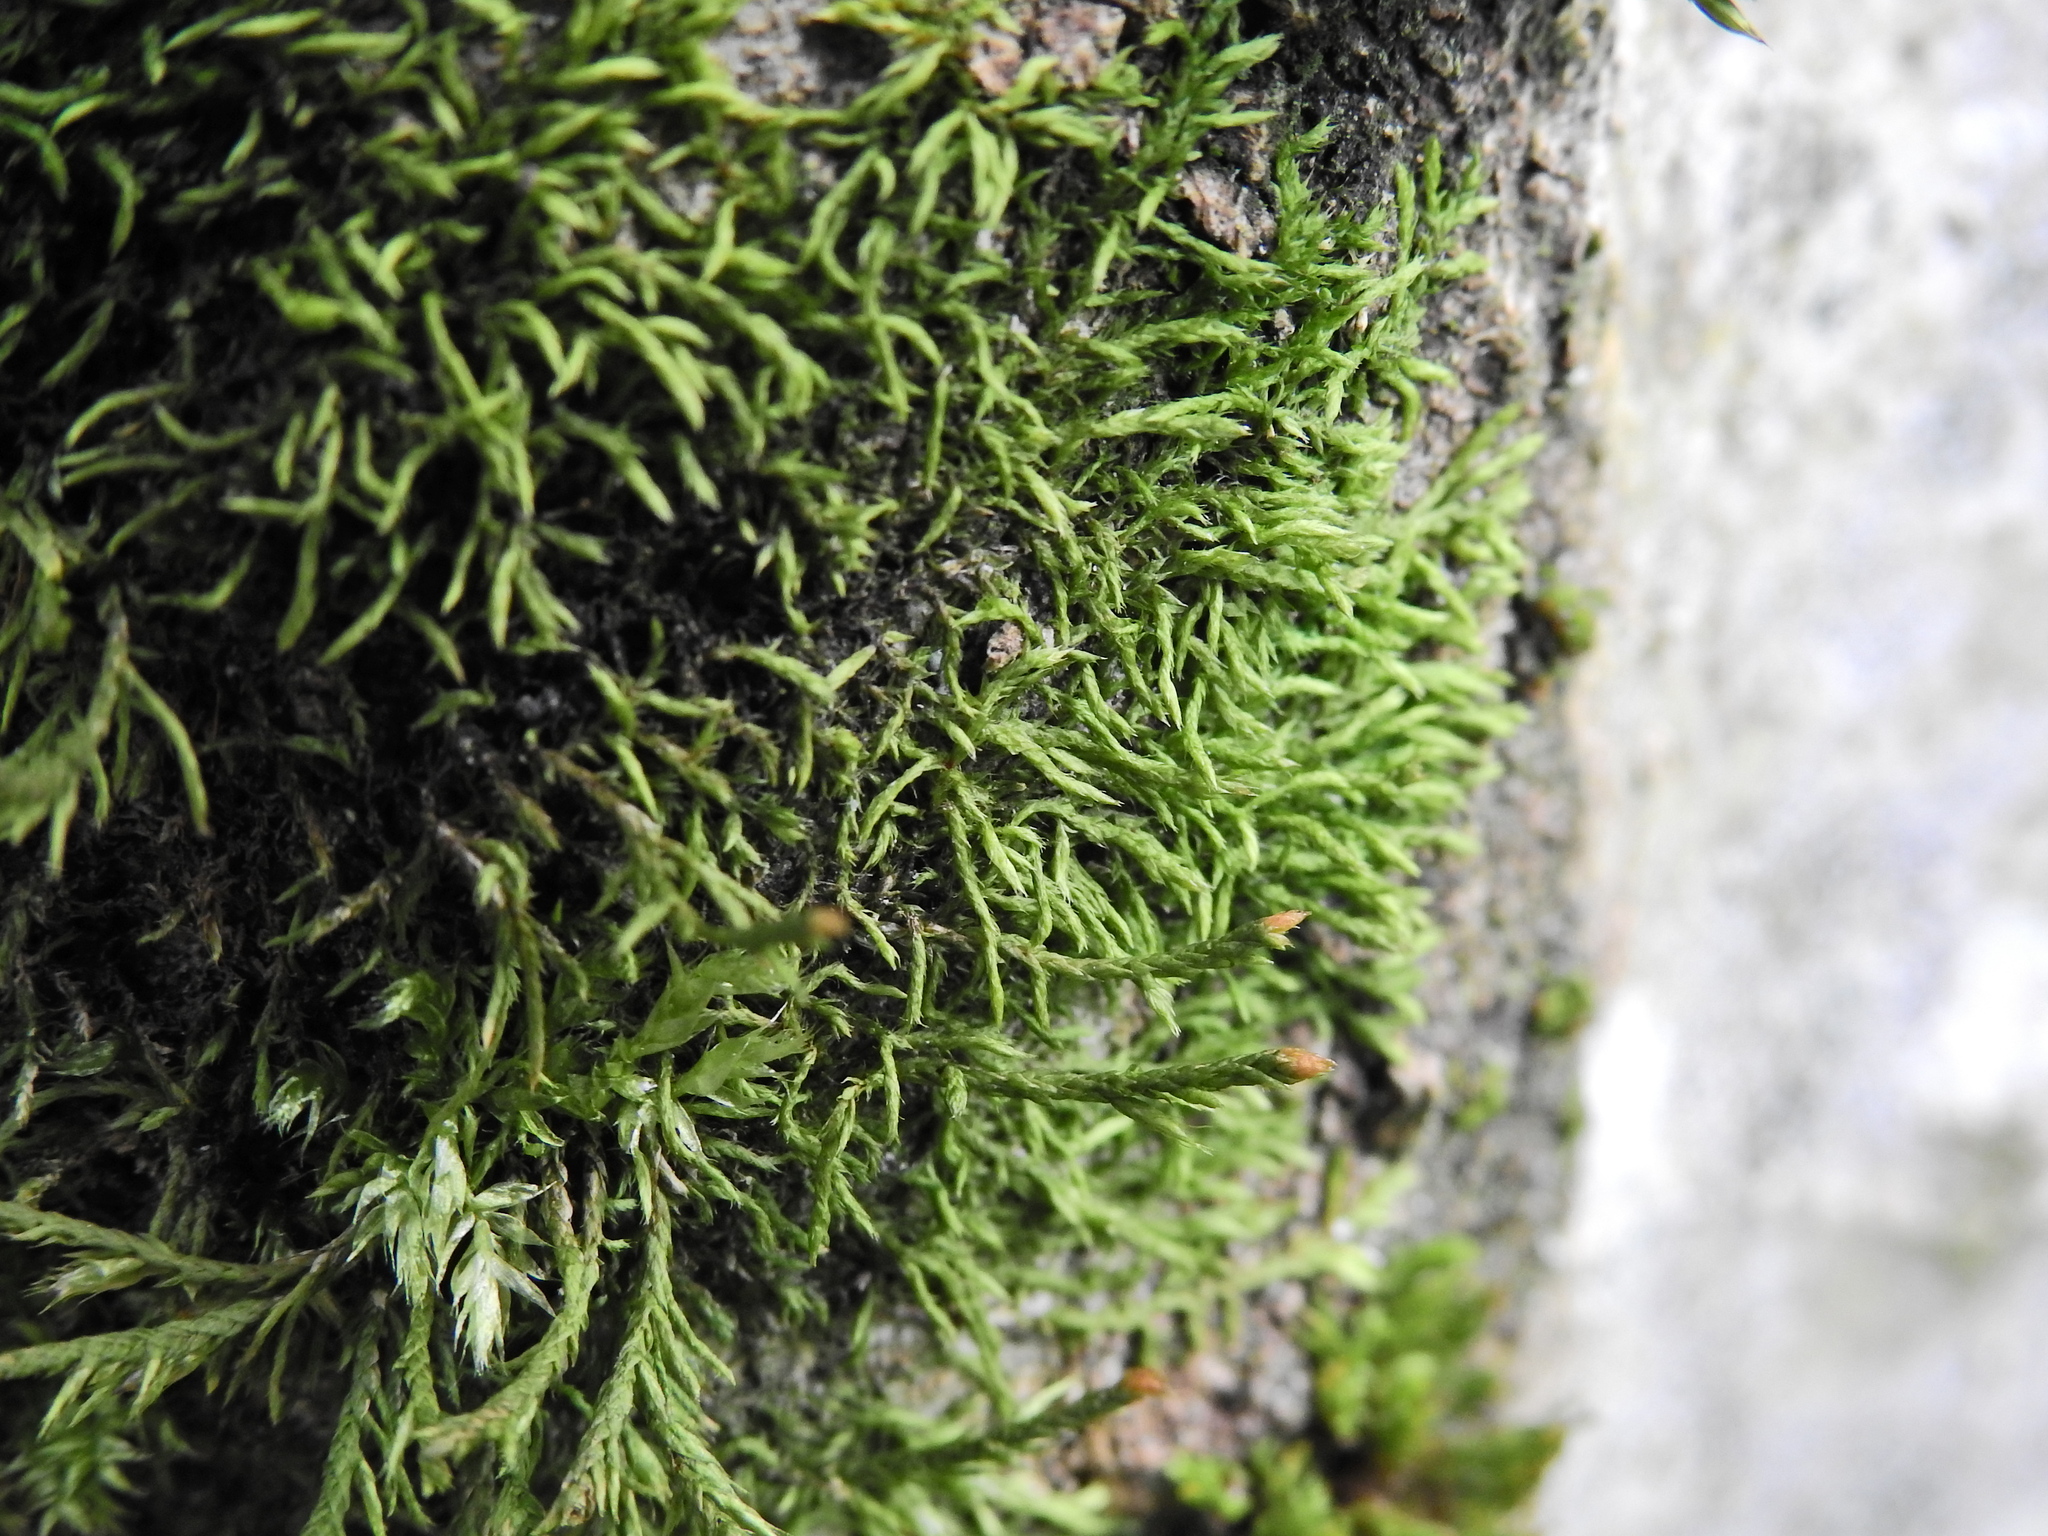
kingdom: Plantae
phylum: Bryophyta
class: Bryopsida
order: Hypnales
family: Cryphaeaceae
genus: Cryphaea
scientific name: Cryphaea heteromalla
